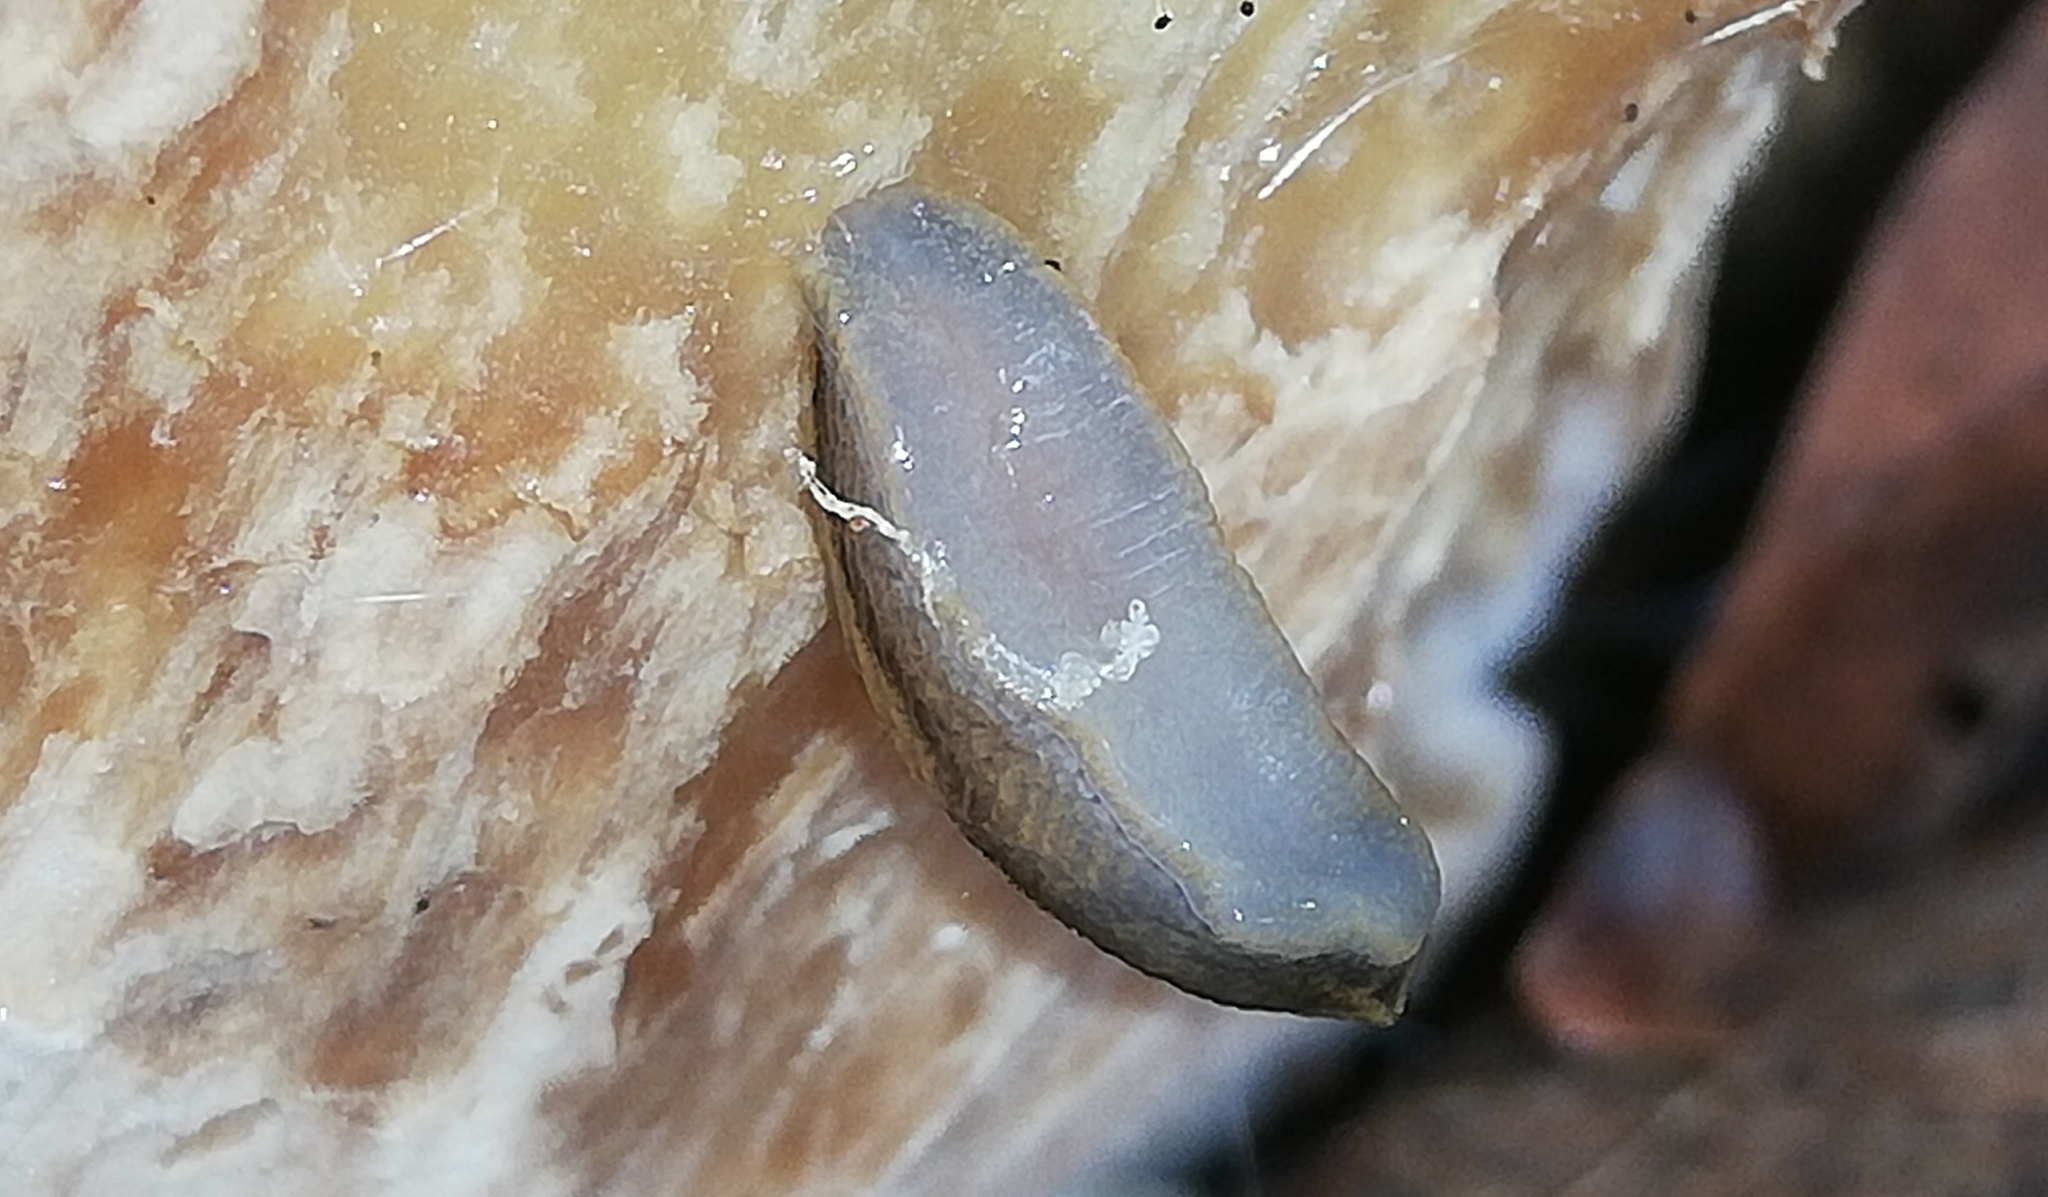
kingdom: Animalia
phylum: Mollusca
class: Gastropoda
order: Stylommatophora
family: Arionidae
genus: Arion
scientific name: Arion vulgaris
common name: Lusitanian slug
